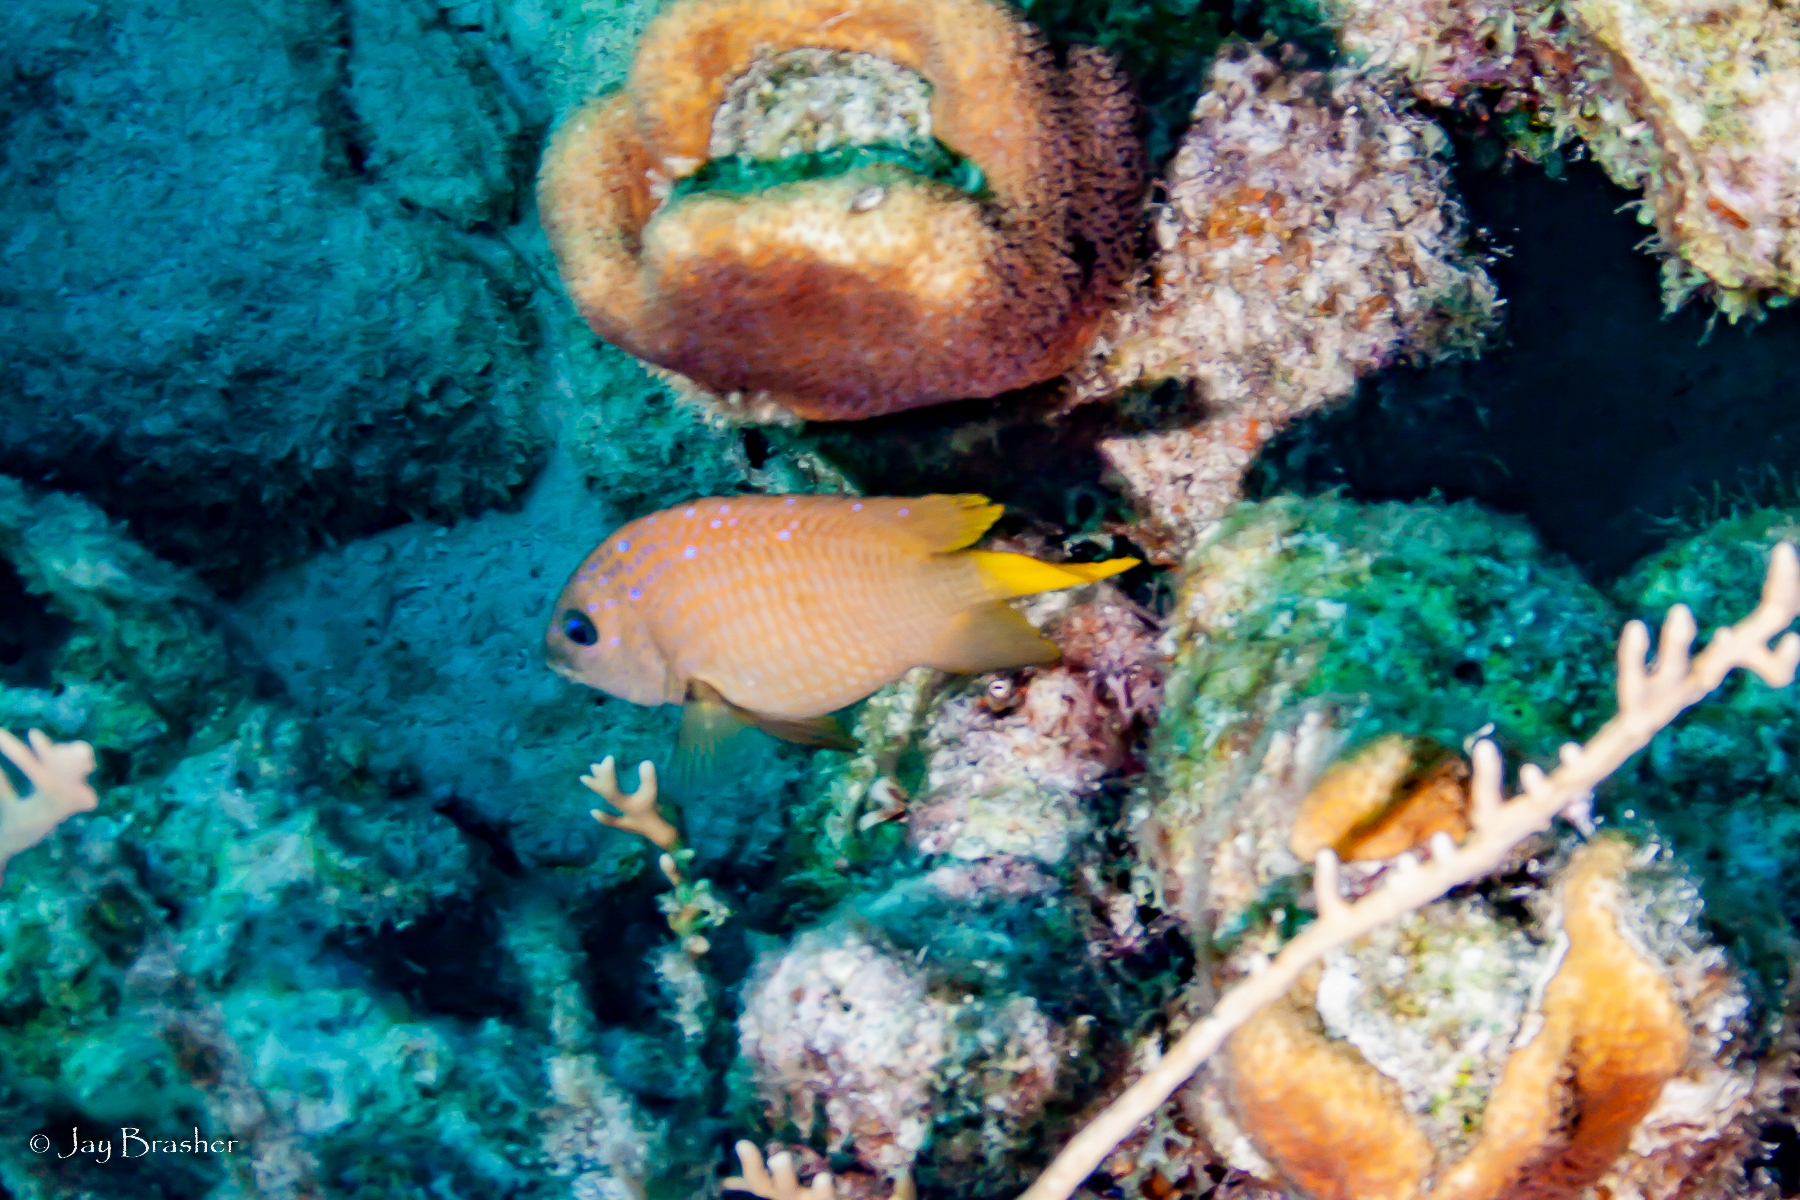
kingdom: Animalia
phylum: Chordata
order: Perciformes
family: Pomacentridae
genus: Microspathodon
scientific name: Microspathodon chrysurus
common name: Yellowtail damselfish
